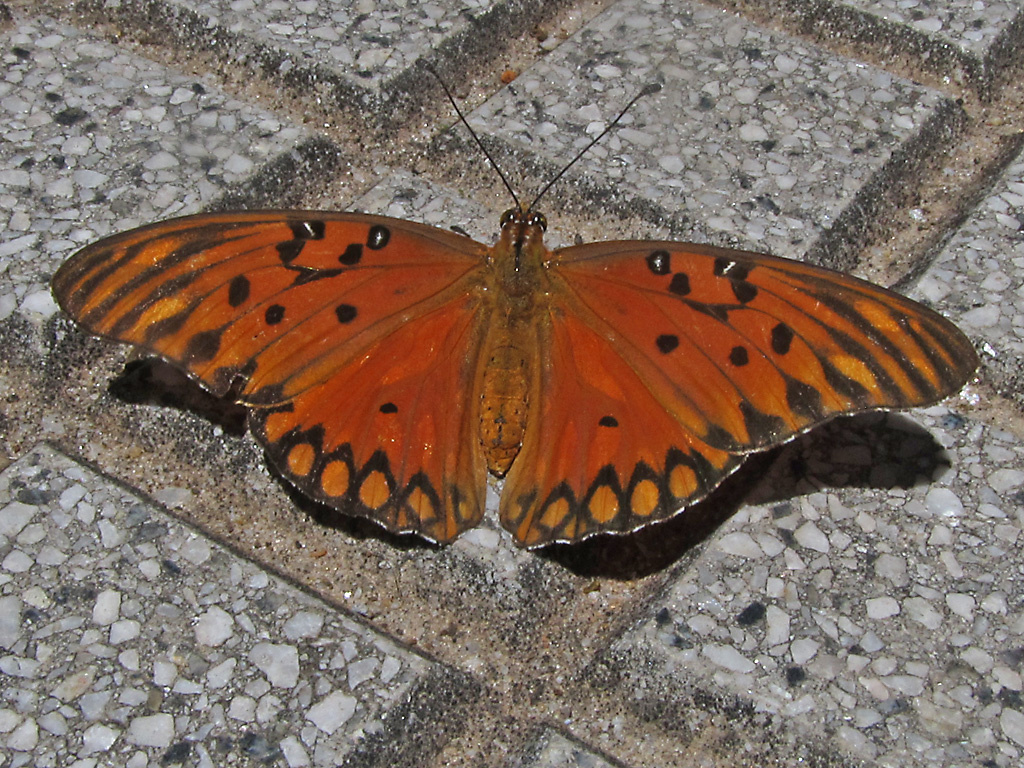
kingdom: Animalia
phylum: Arthropoda
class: Insecta
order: Lepidoptera
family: Nymphalidae
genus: Dione
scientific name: Dione vanillae
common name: Gulf fritillary
